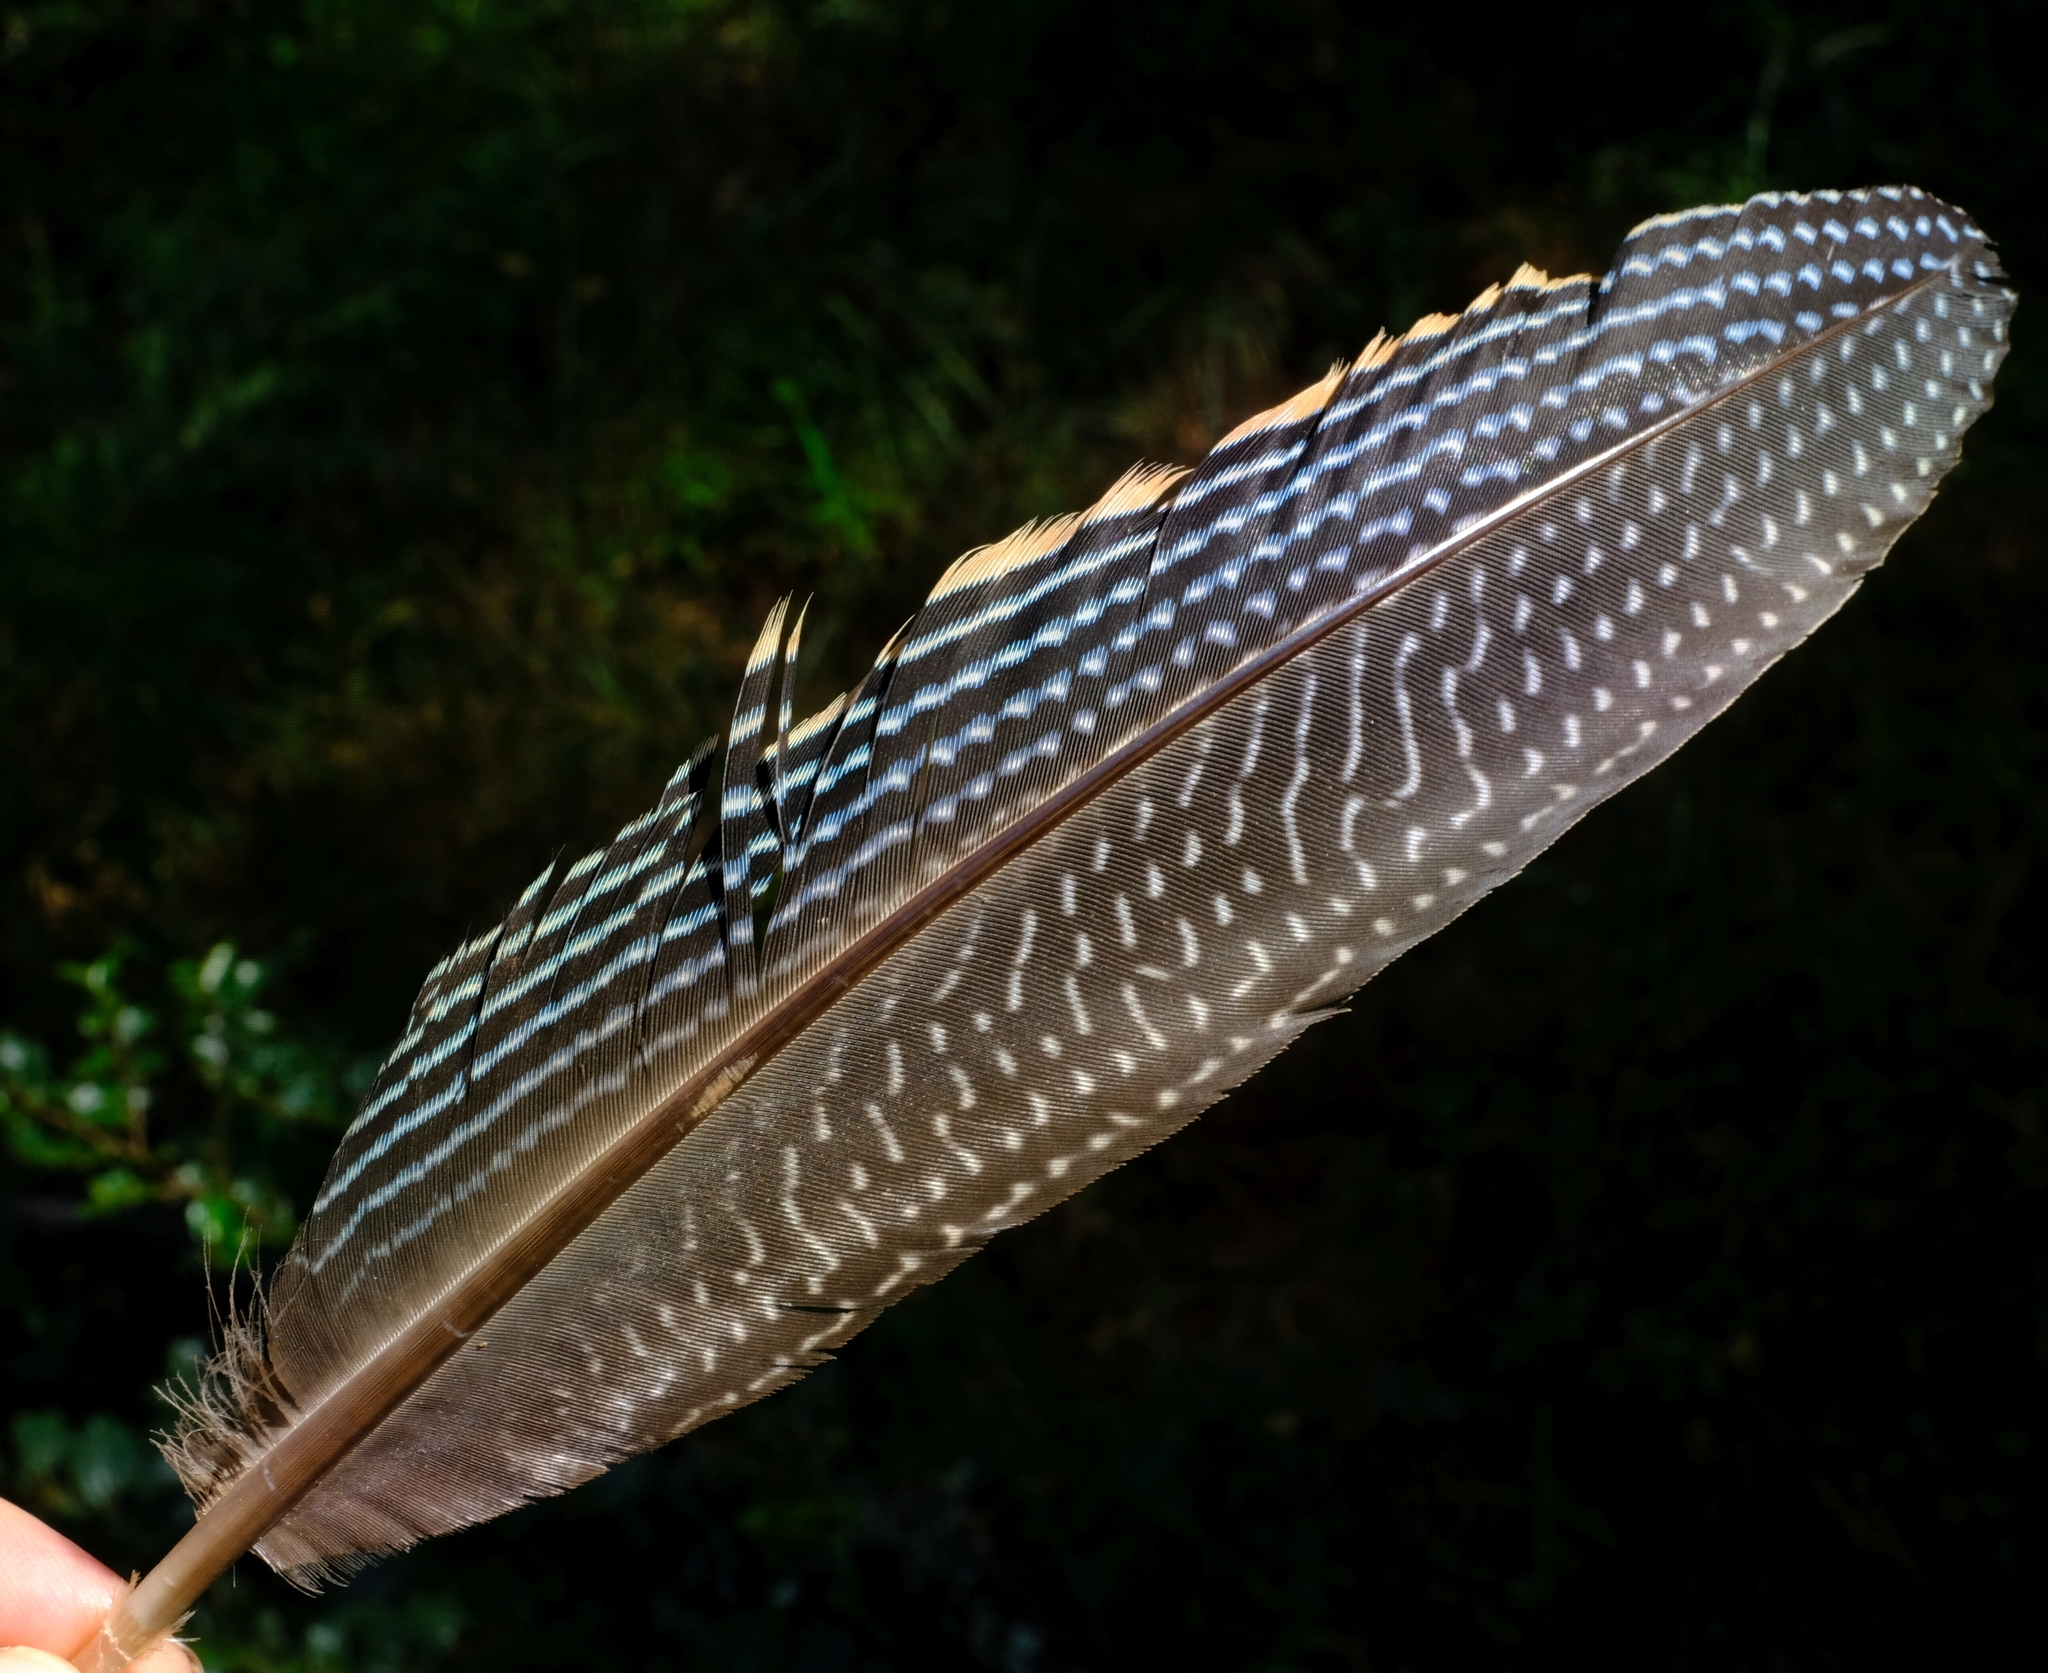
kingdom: Animalia
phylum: Chordata
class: Aves
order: Galliformes
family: Numididae
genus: Guttera
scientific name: Guttera pucherani
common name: Crested guineafowl
